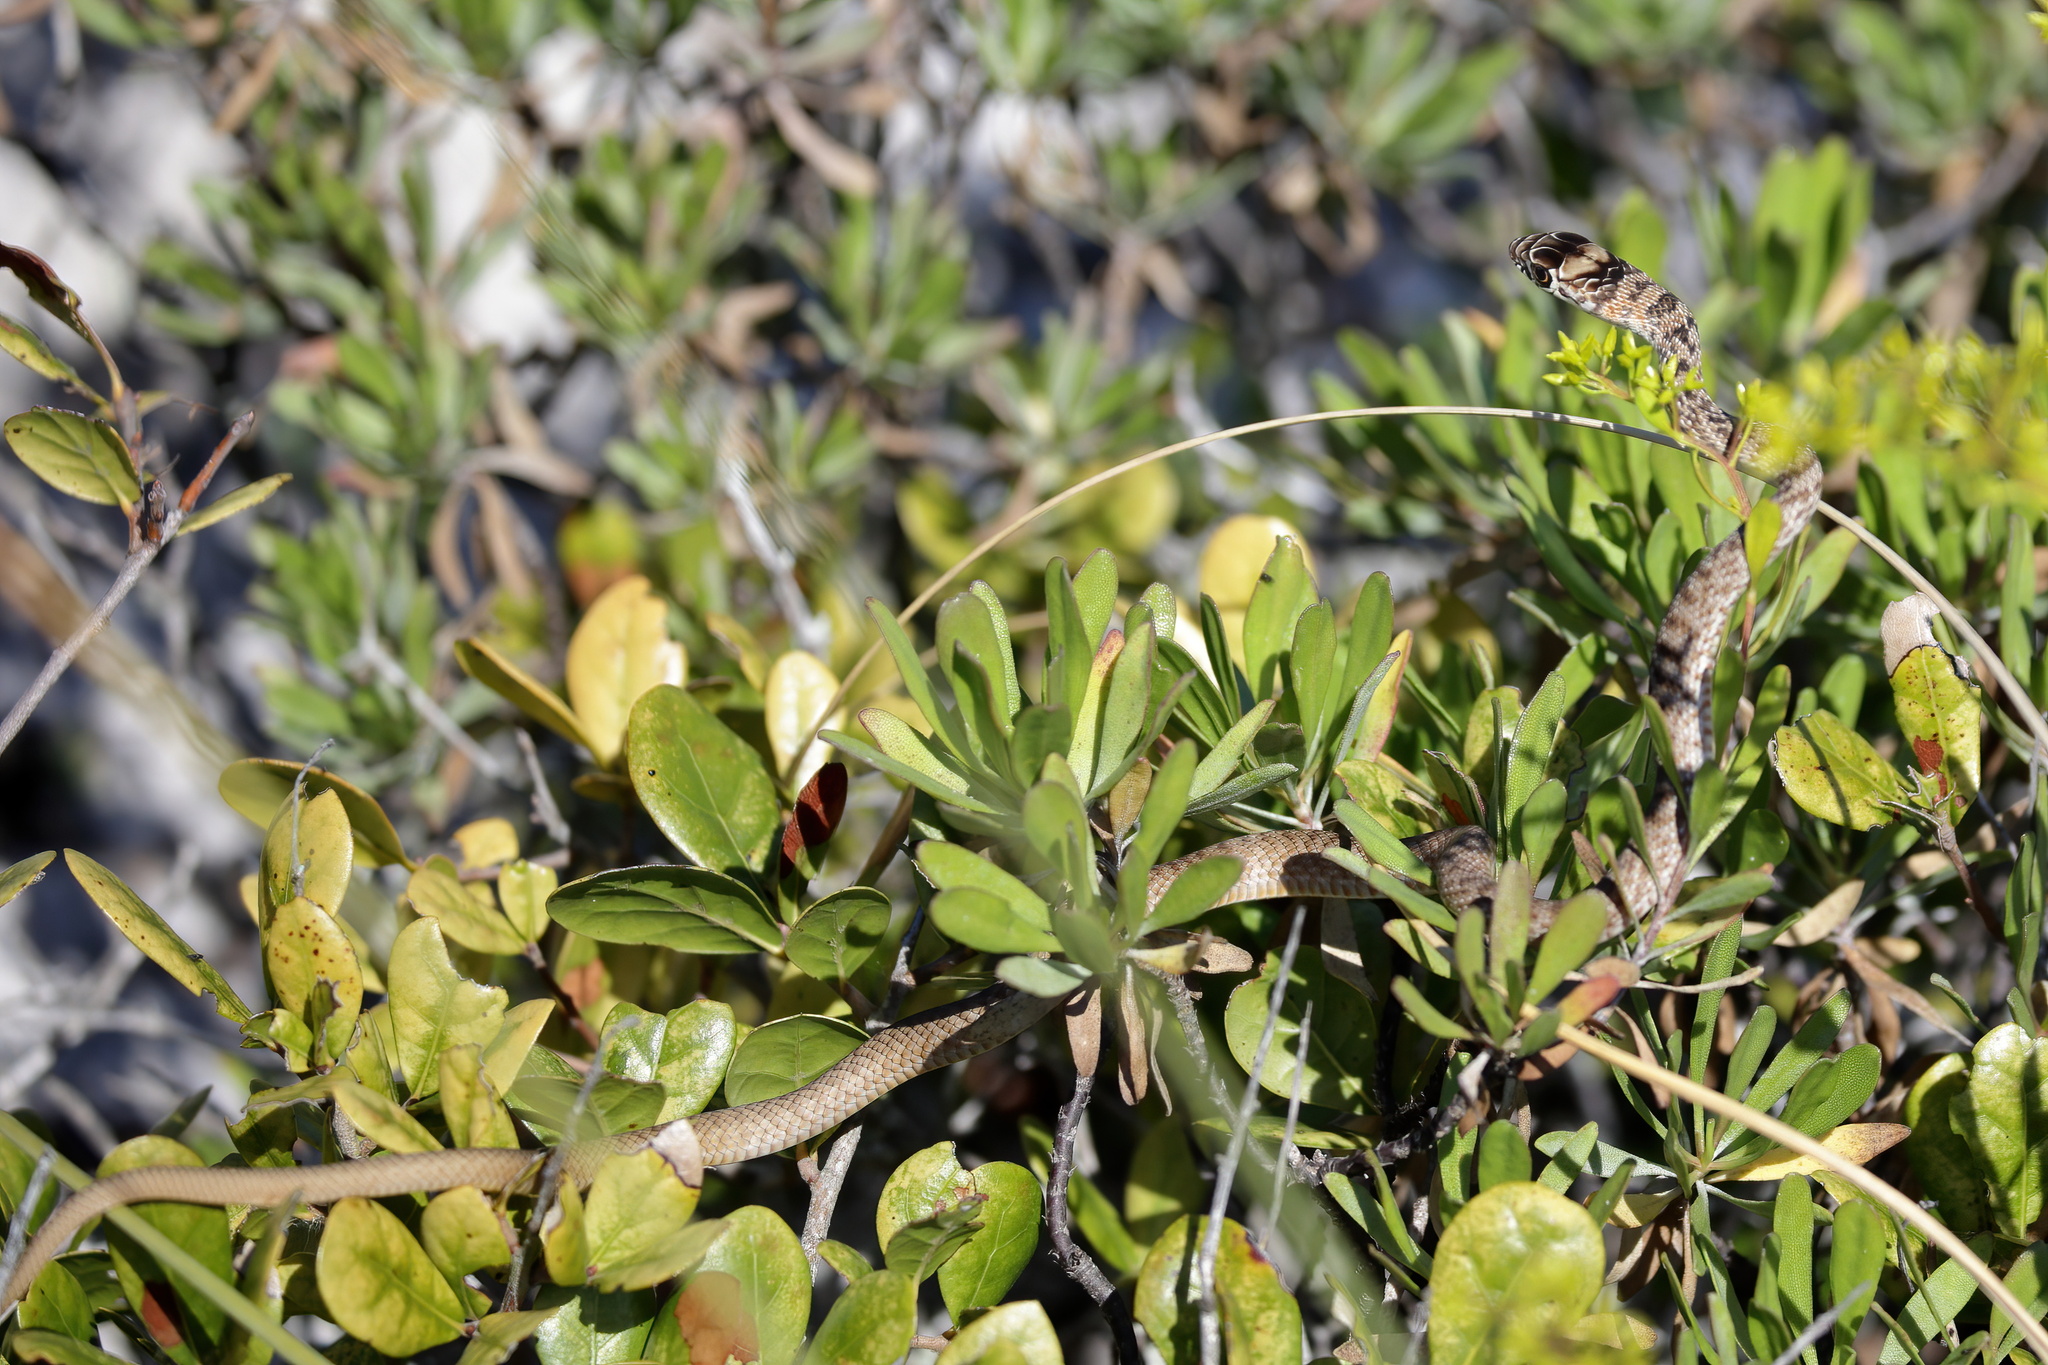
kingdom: Animalia
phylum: Chordata
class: Squamata
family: Colubridae
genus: Masticophis
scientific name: Masticophis flagellum
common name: Coachwhip
